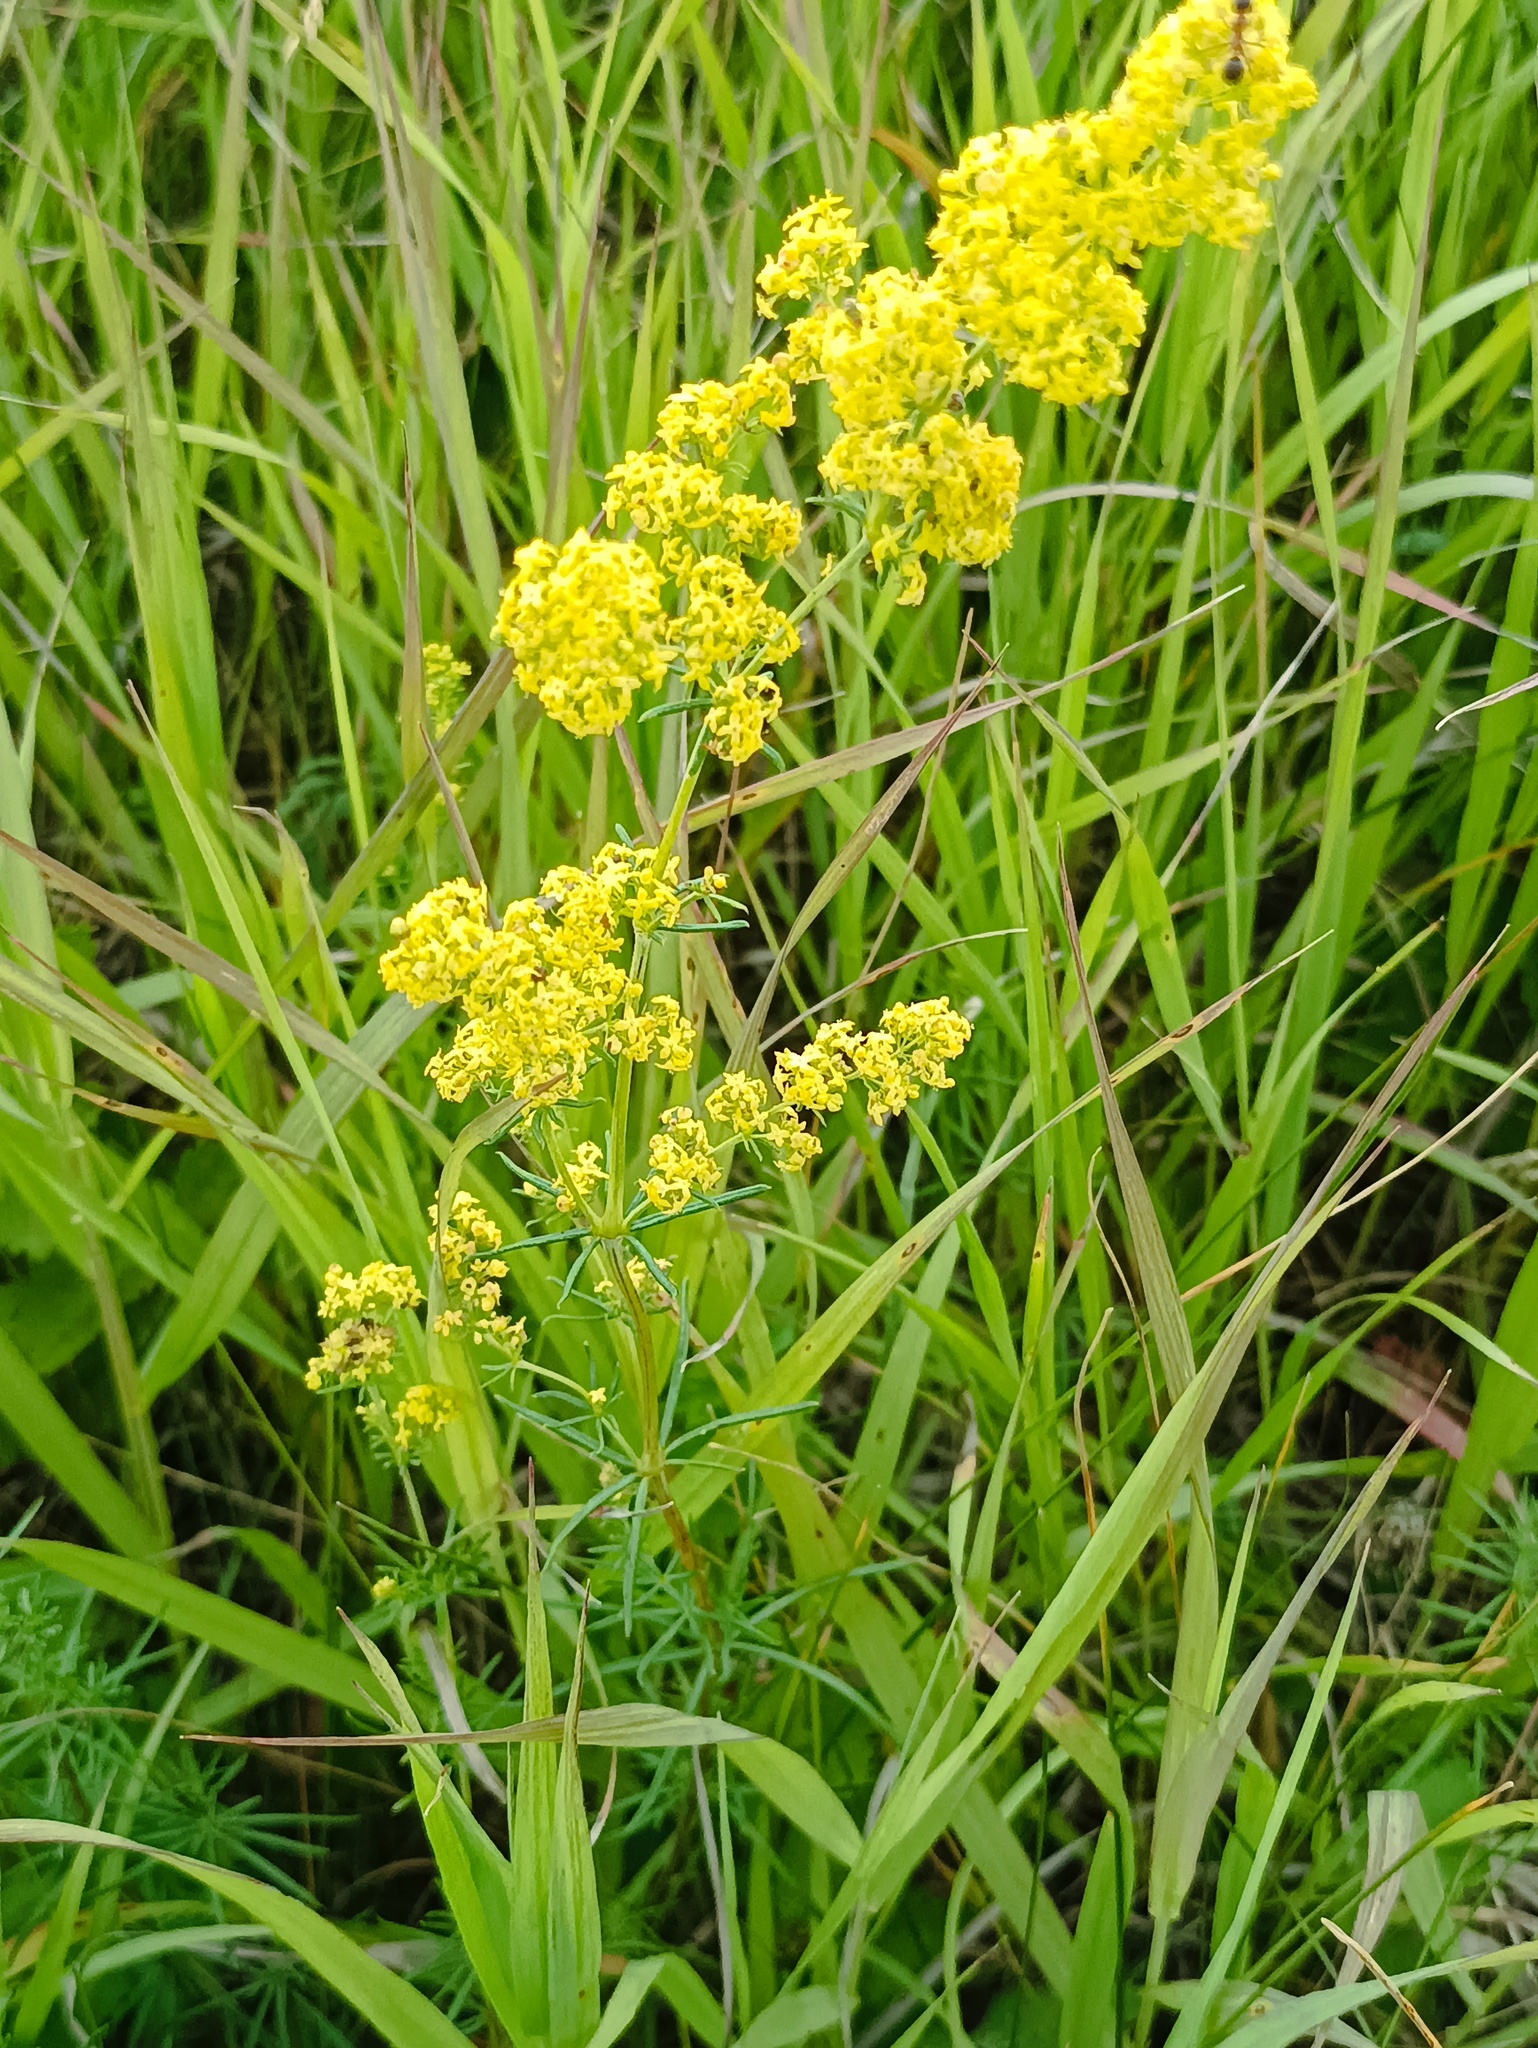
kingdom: Plantae
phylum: Tracheophyta
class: Magnoliopsida
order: Gentianales
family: Rubiaceae
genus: Galium
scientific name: Galium verum
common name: Lady's bedstraw
